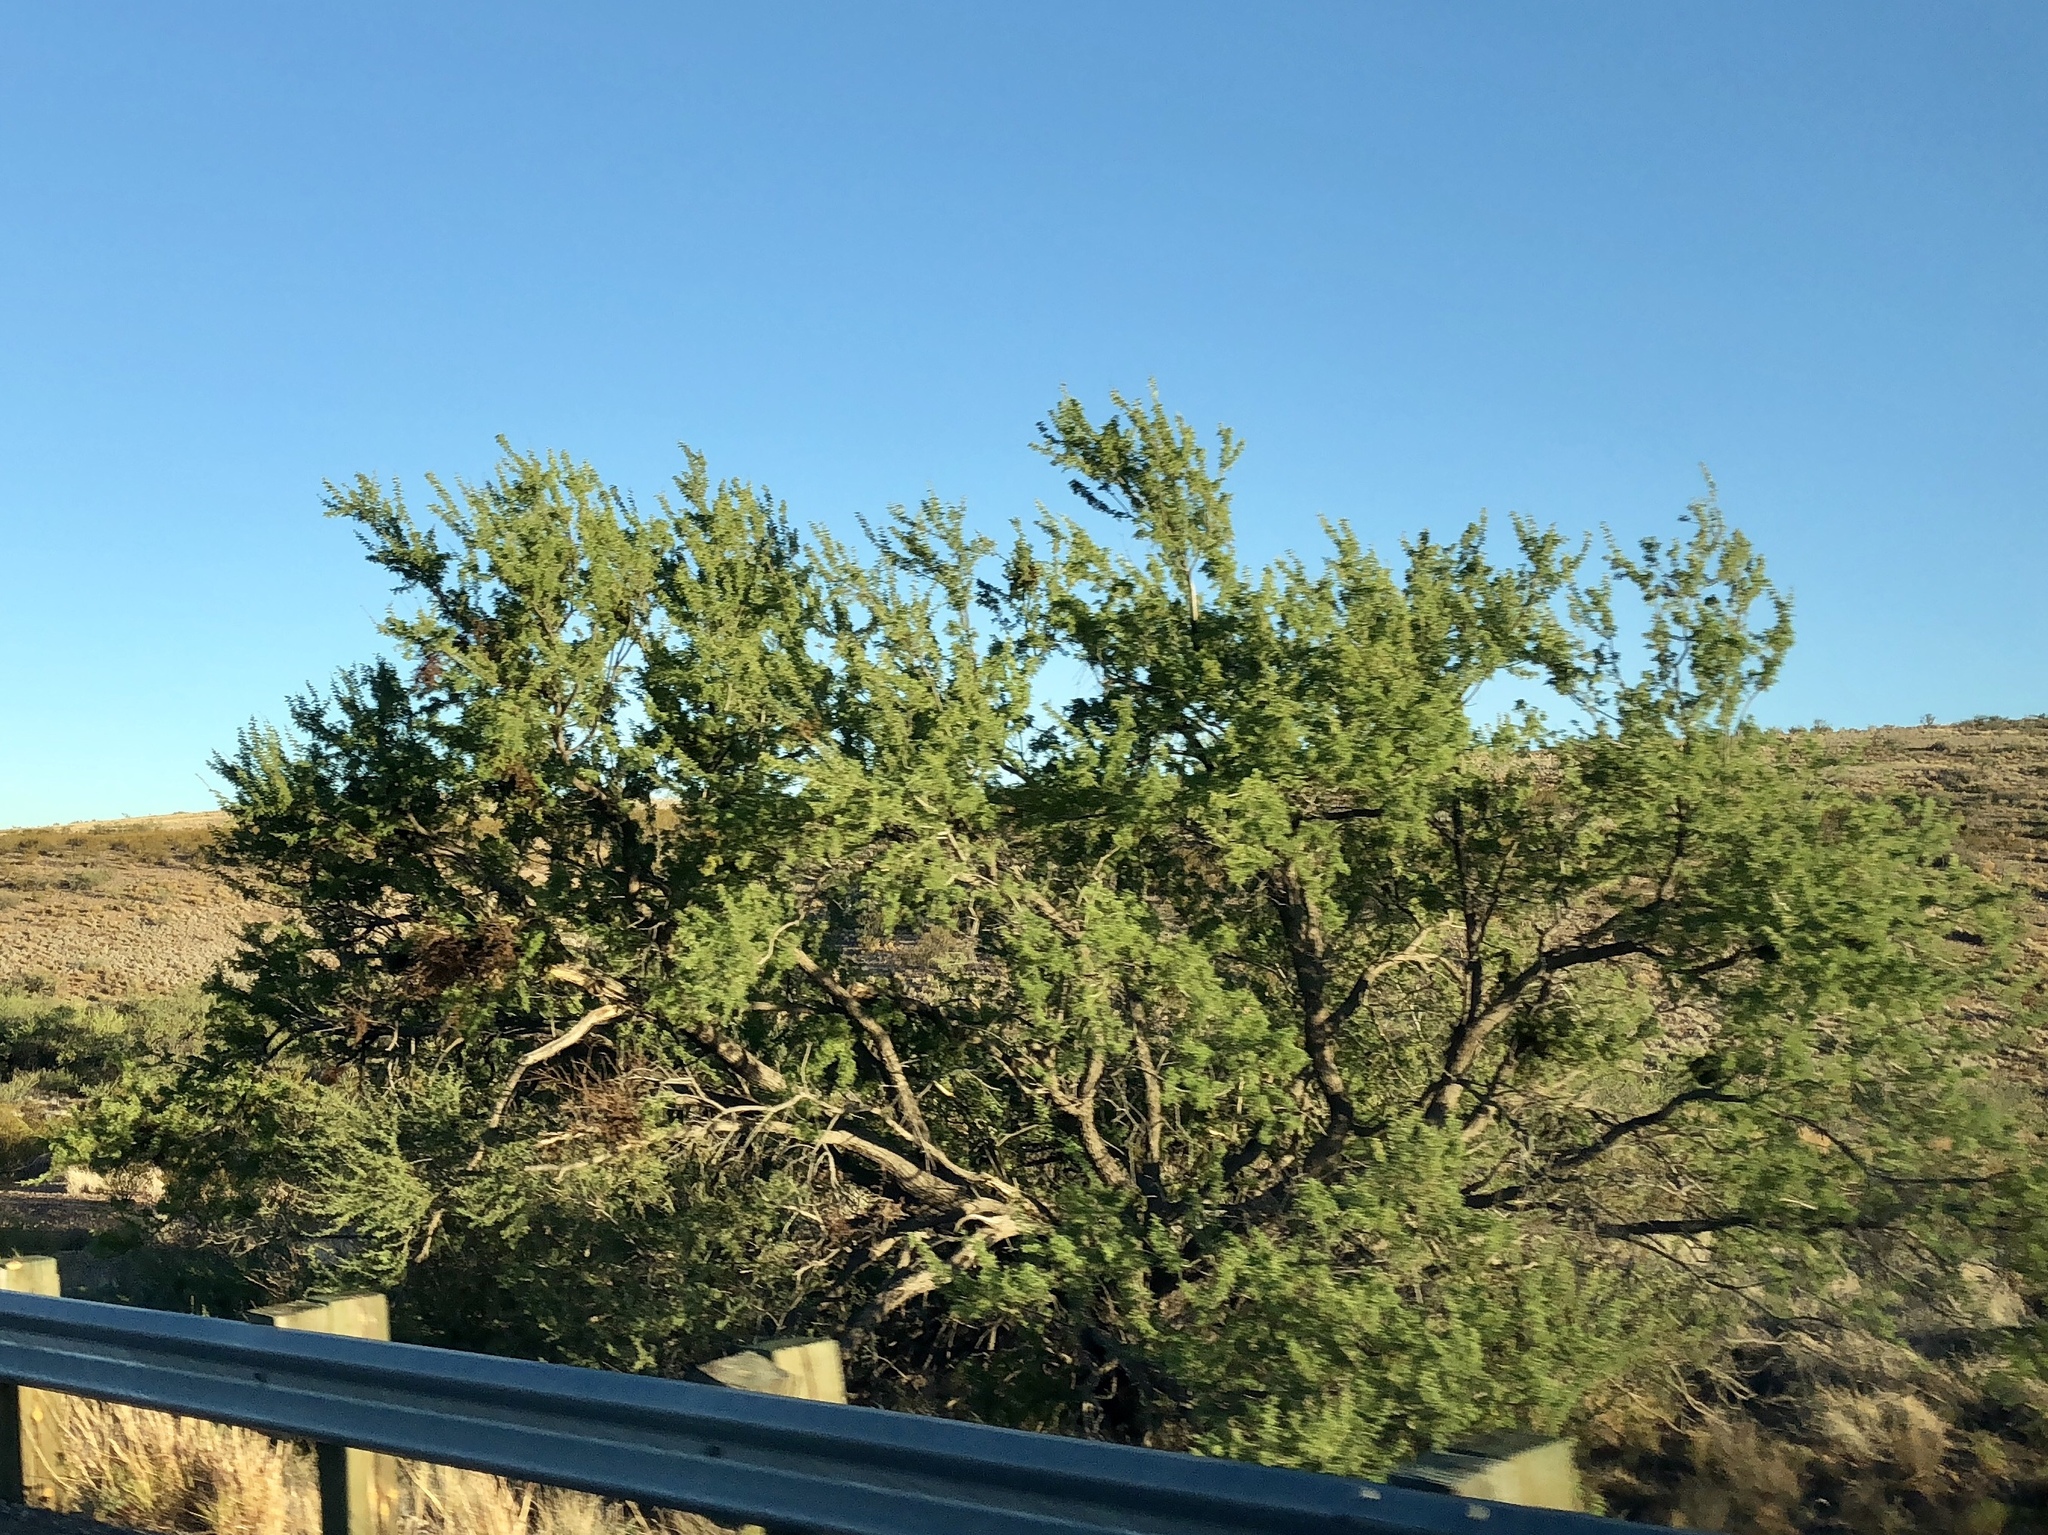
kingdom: Plantae
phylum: Tracheophyta
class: Magnoliopsida
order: Fabales
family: Fabaceae
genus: Senegalia
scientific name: Senegalia greggii
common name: Texas-mimosa
